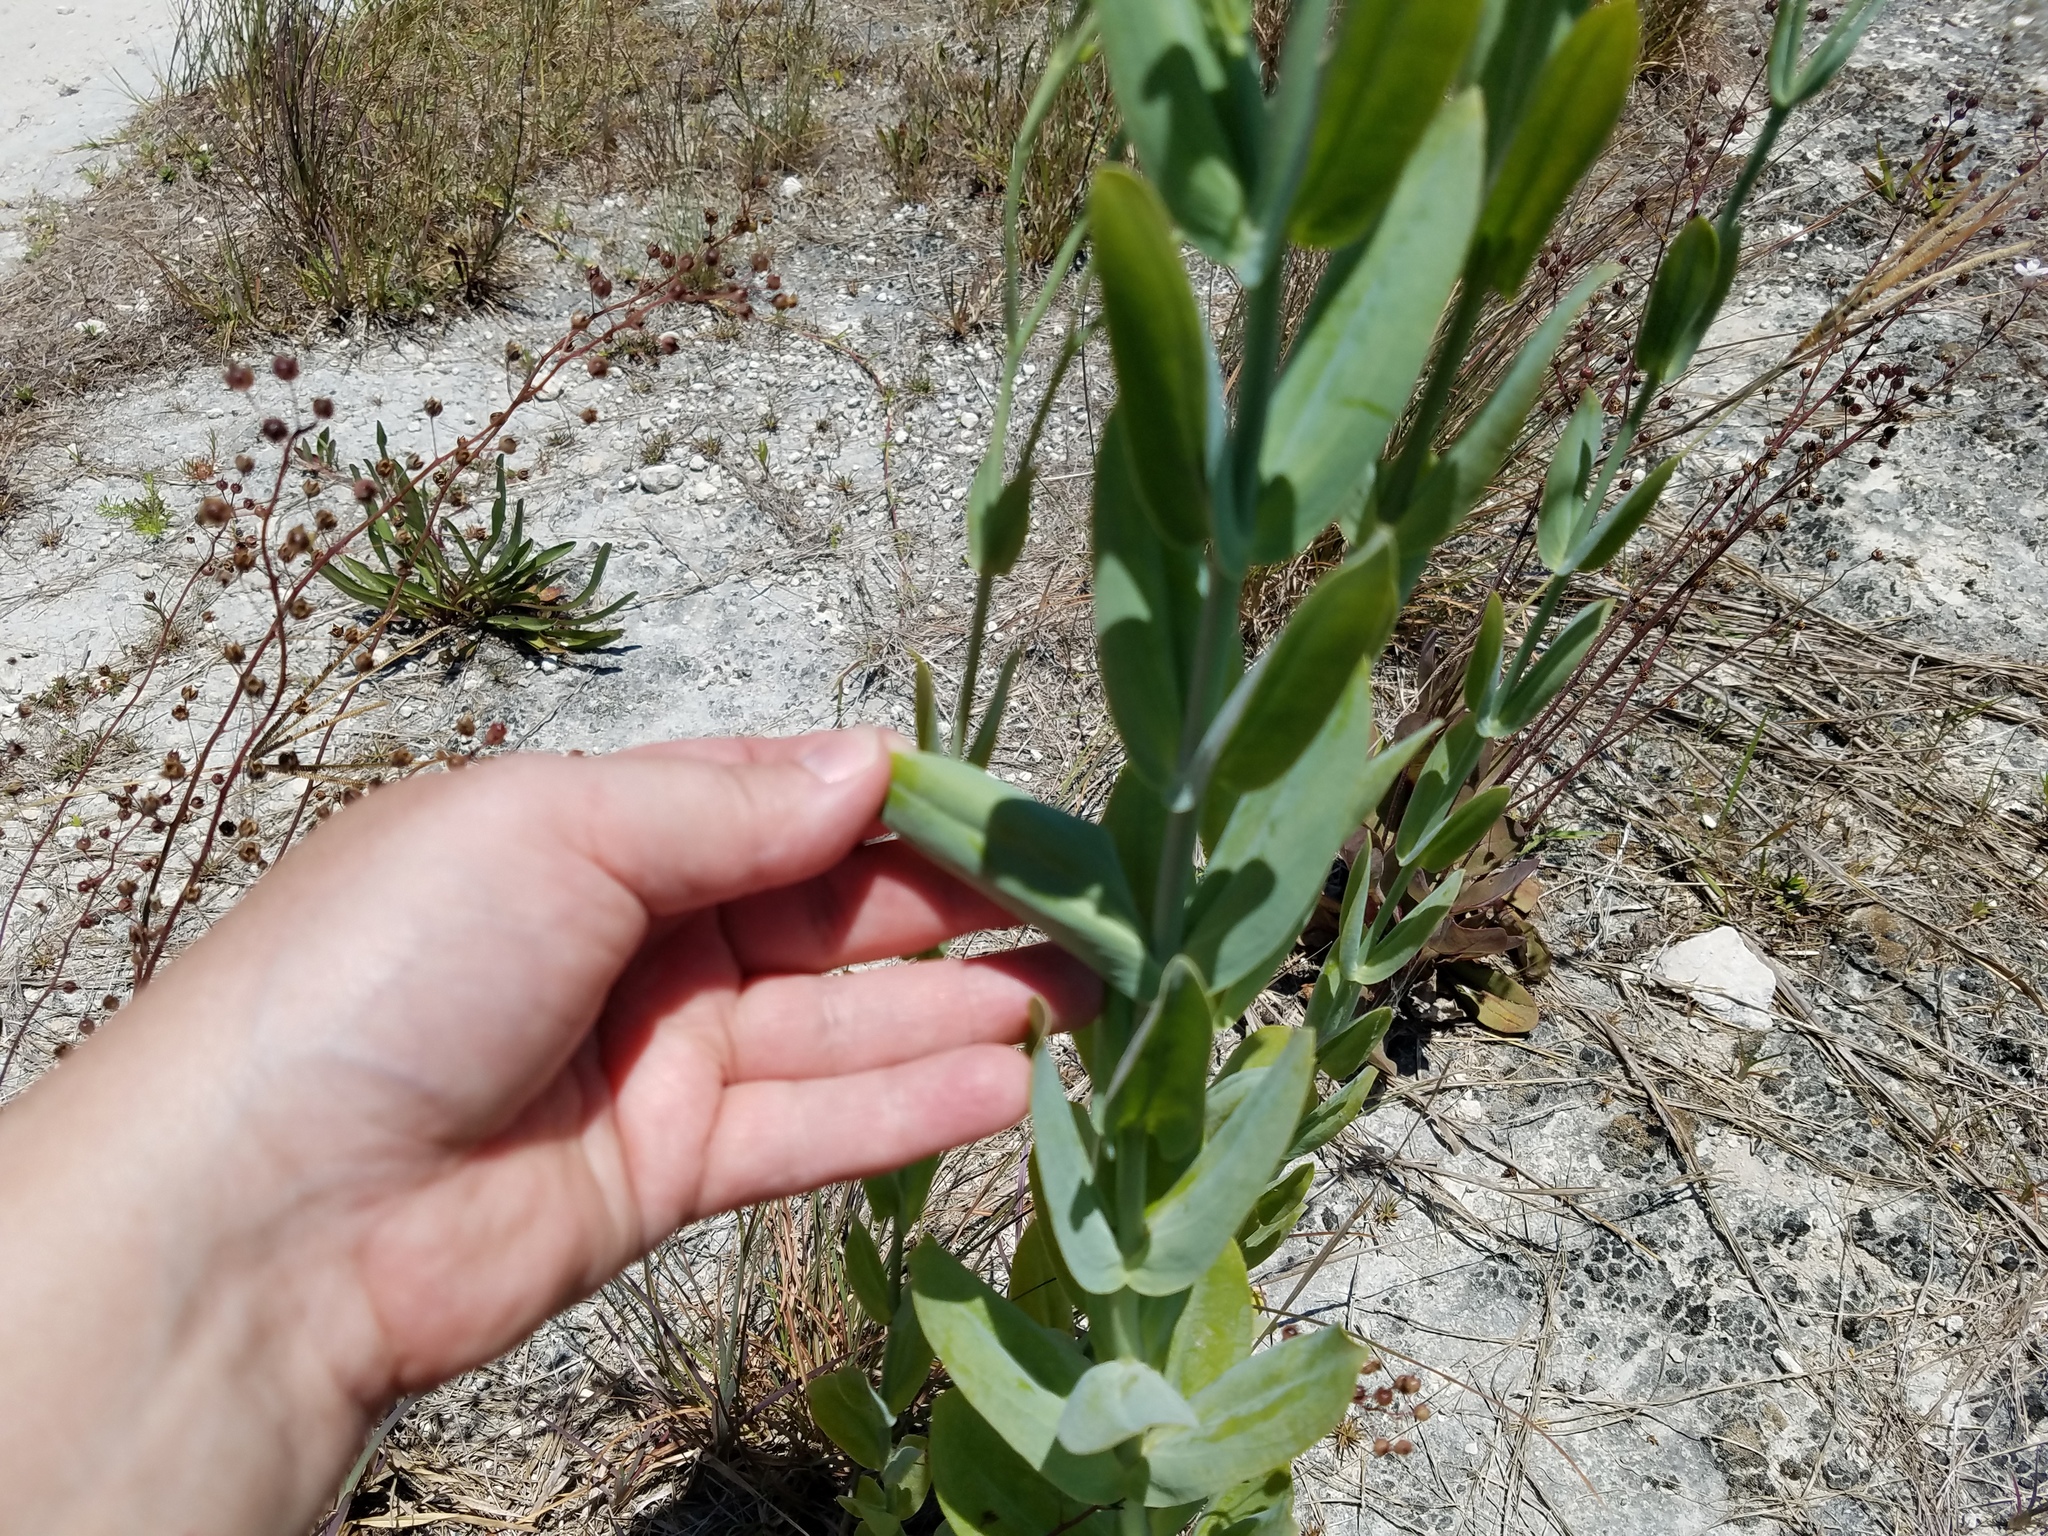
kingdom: Plantae
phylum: Tracheophyta
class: Magnoliopsida
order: Gentianales
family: Gentianaceae
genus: Eustoma
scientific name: Eustoma exaltatum
